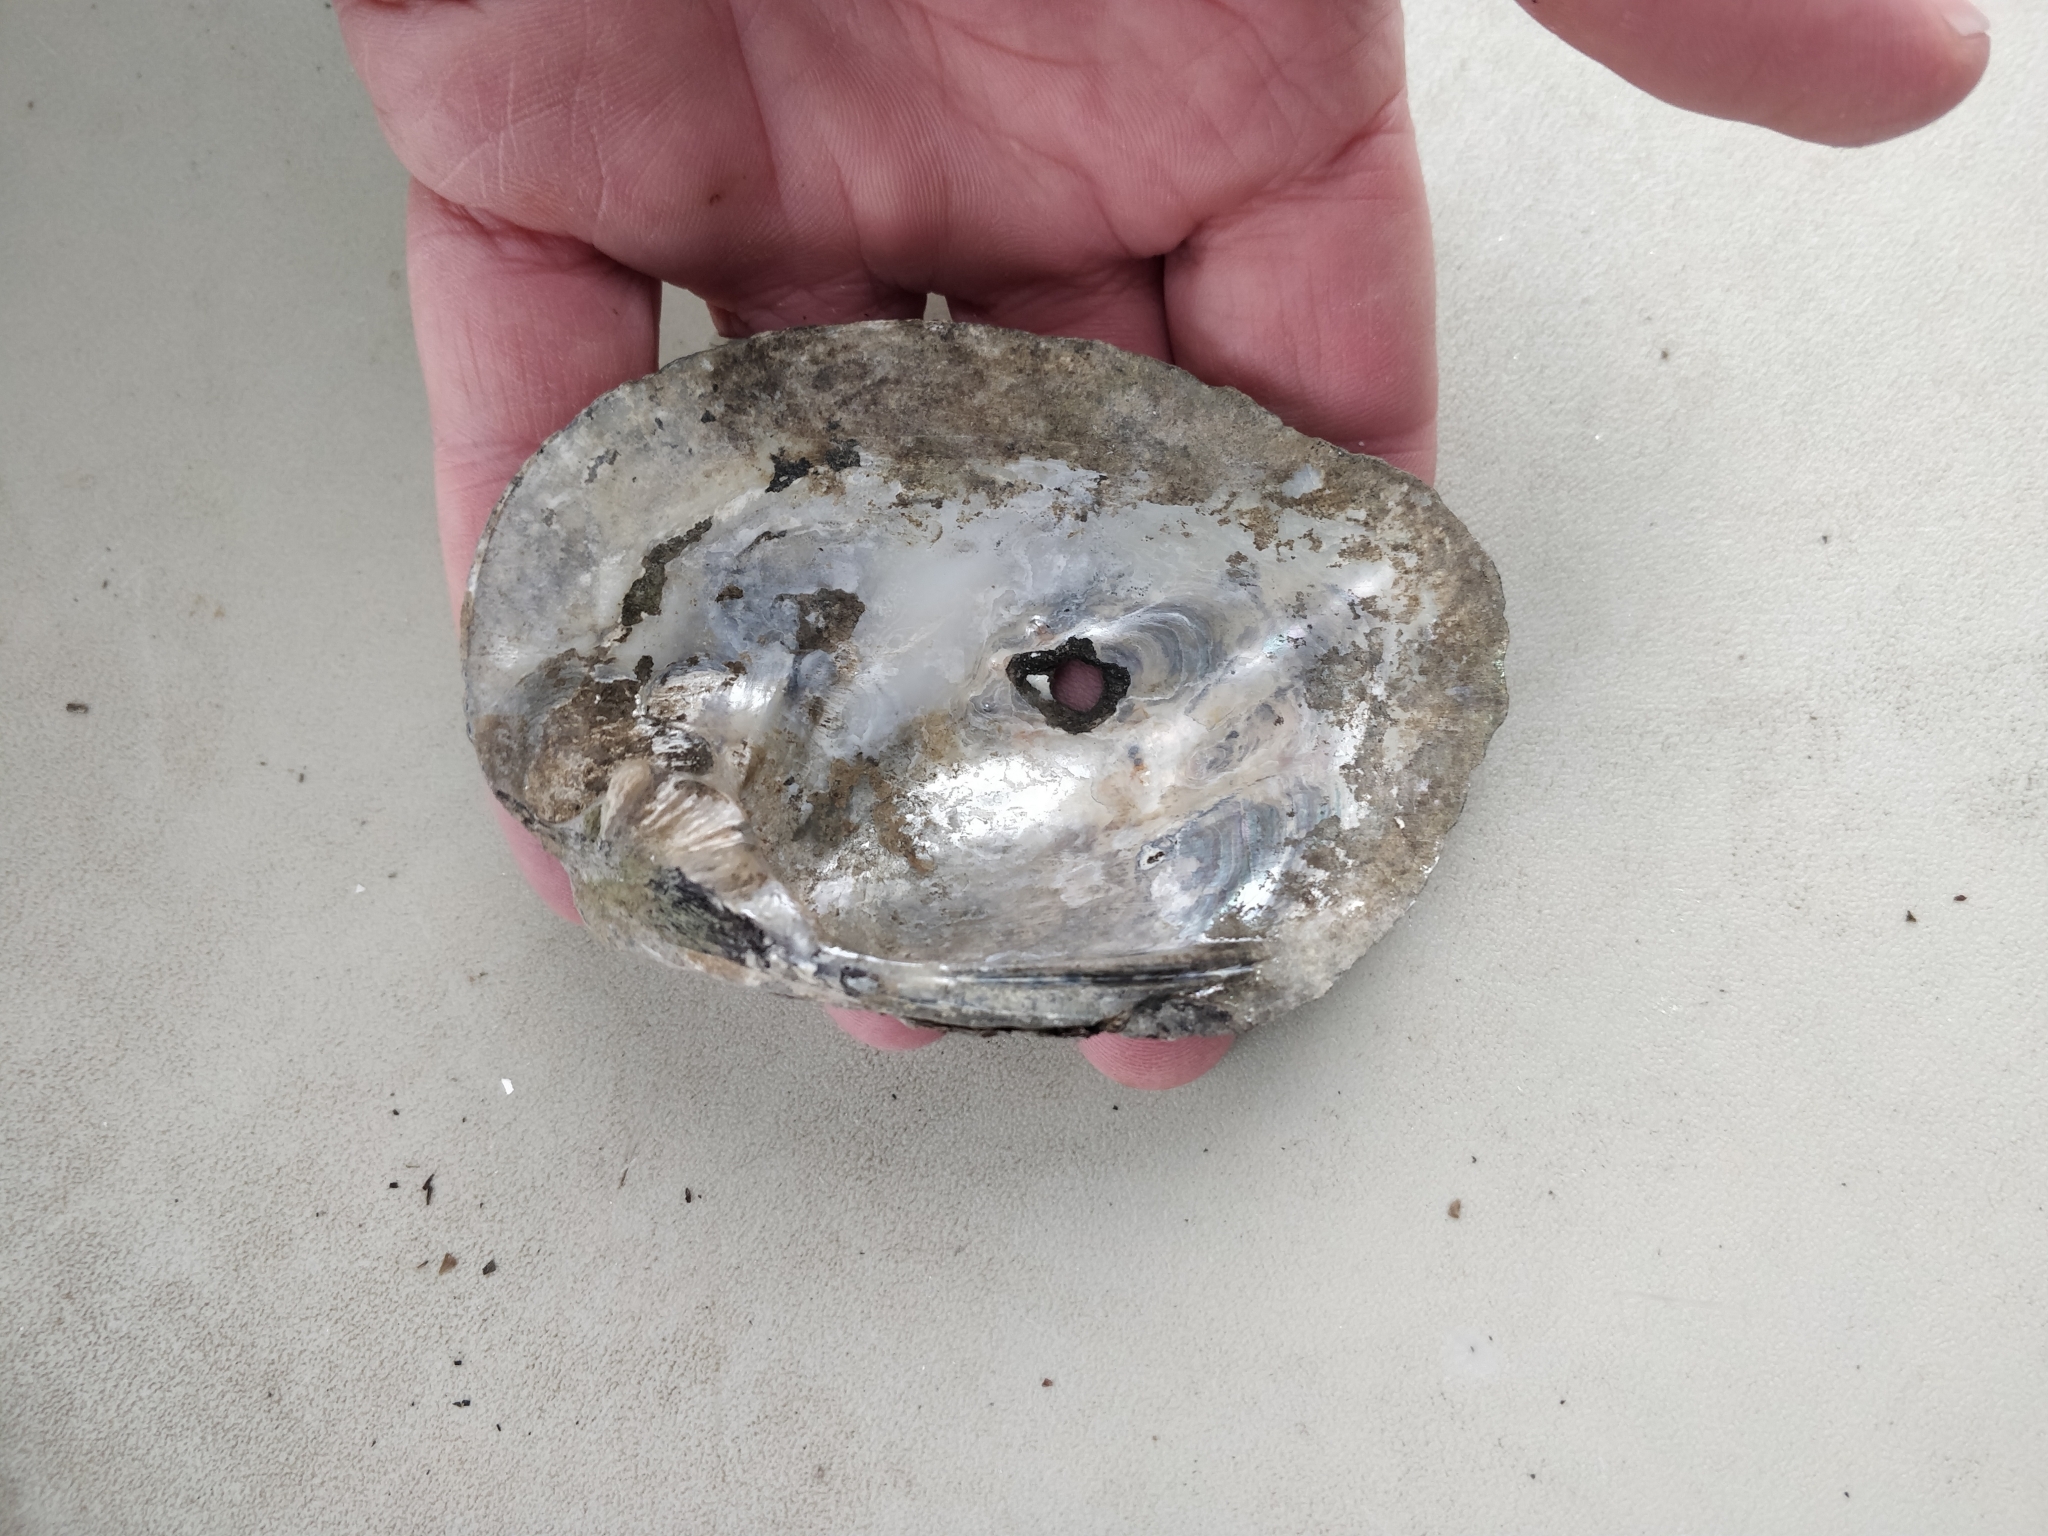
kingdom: Animalia
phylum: Mollusca
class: Bivalvia
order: Unionida
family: Unionidae
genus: Amblema
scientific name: Amblema plicata
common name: Threeridge
